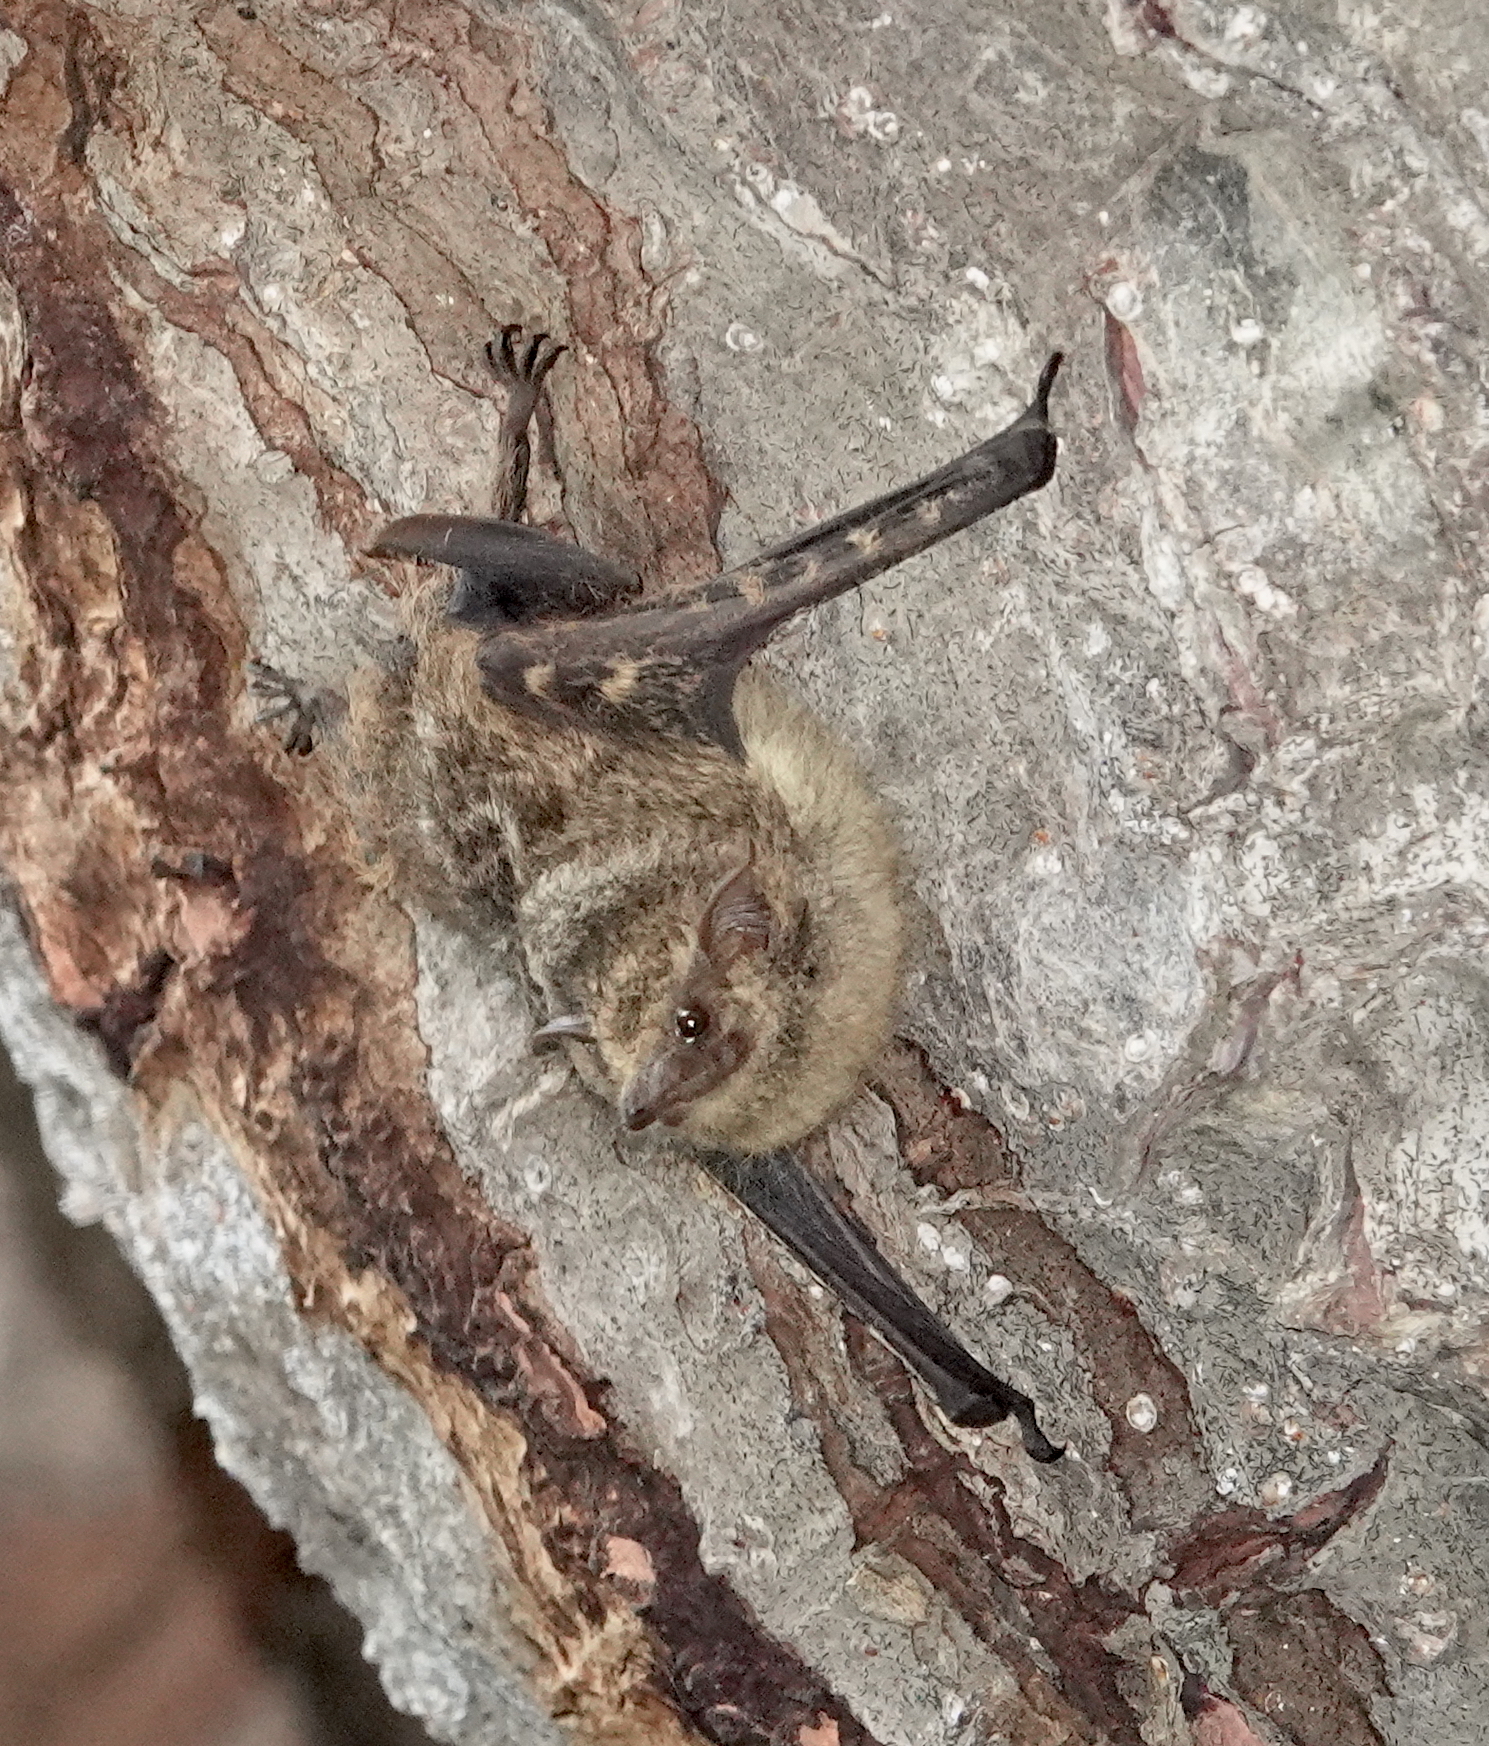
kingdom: Animalia
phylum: Chordata
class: Mammalia
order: Chiroptera
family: Emballonuridae
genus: Rhynchonycteris
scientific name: Rhynchonycteris naso
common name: Proboscis bat
